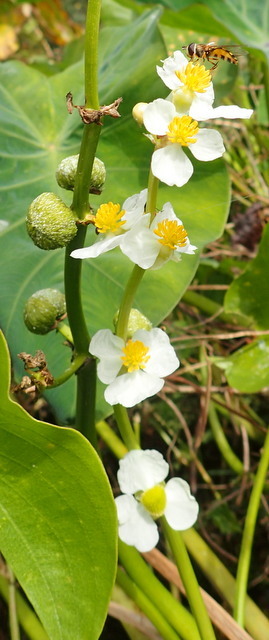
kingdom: Plantae
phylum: Tracheophyta
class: Liliopsida
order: Alismatales
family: Alismataceae
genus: Sagittaria
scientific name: Sagittaria latifolia
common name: Duck-potato
